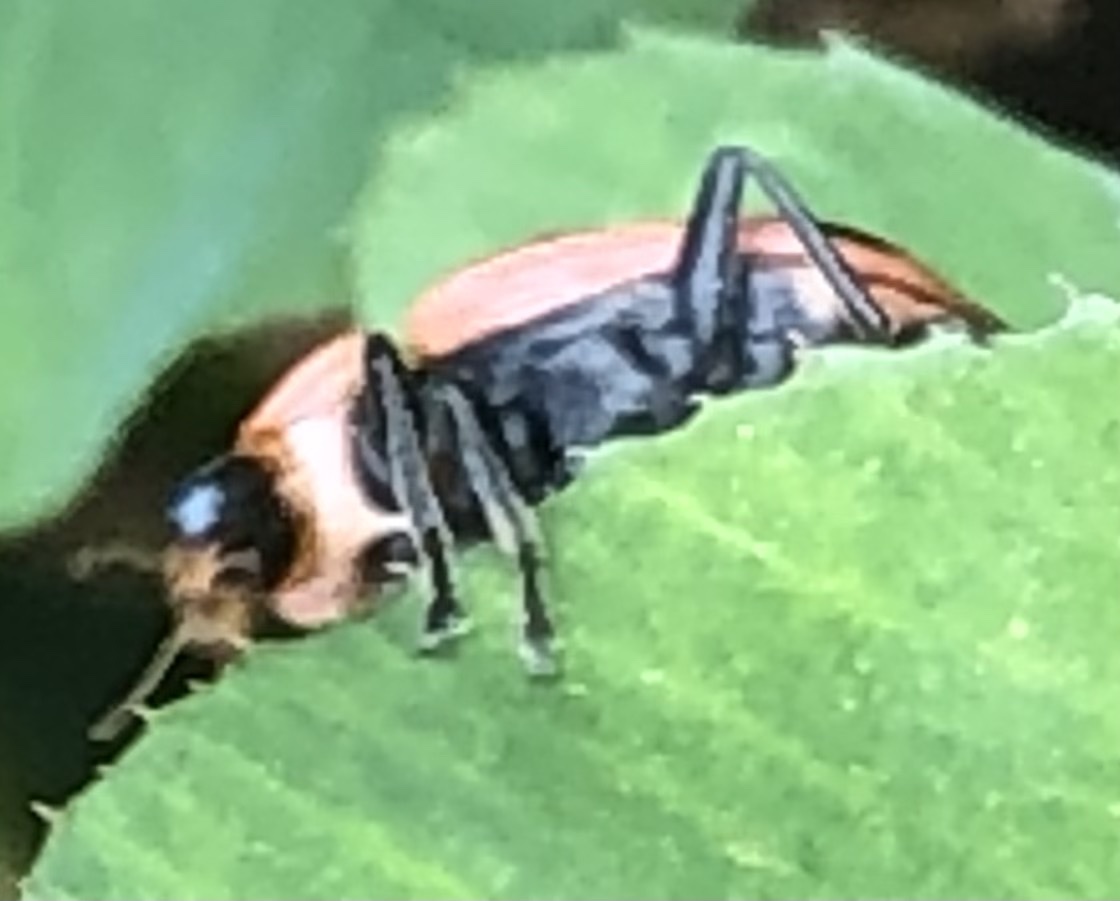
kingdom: Animalia
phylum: Arthropoda
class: Insecta
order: Coleoptera
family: Coccinellidae
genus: Coleomegilla
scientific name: Coleomegilla maculata
